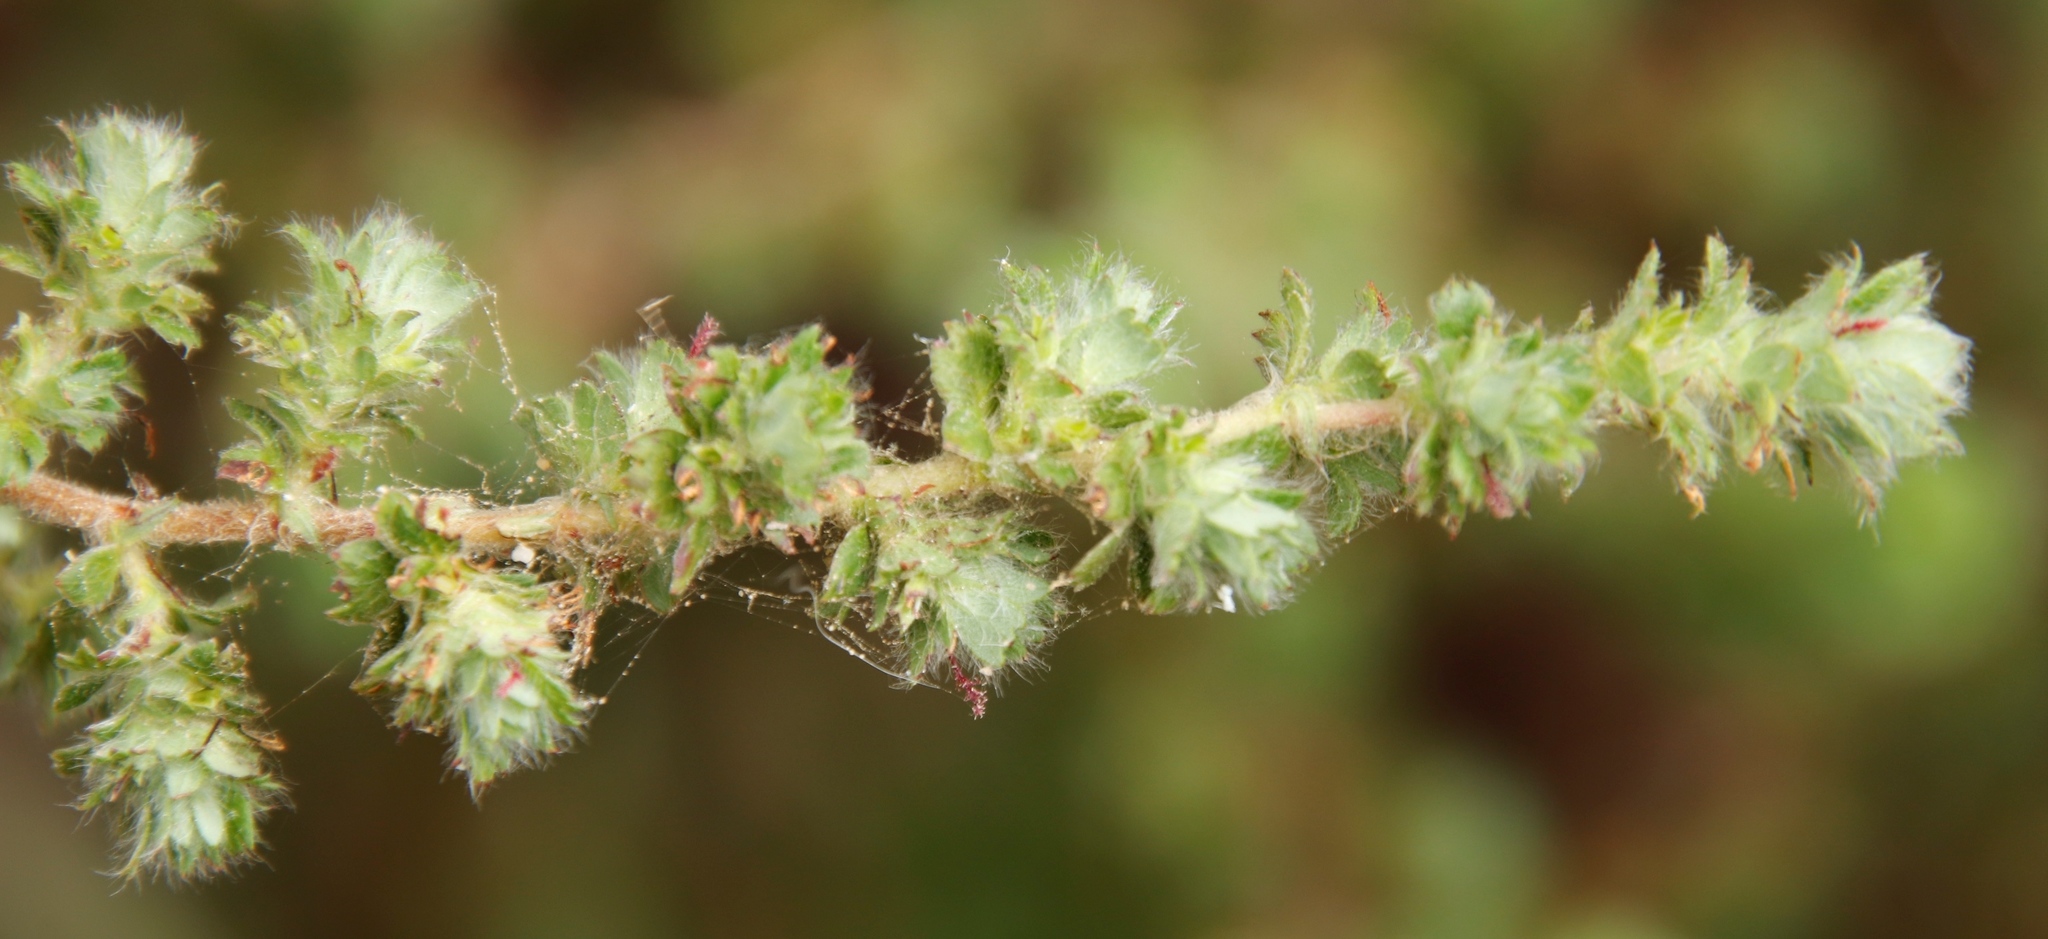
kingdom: Plantae
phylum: Tracheophyta
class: Magnoliopsida
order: Rosales
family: Rosaceae
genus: Cliffortia
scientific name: Cliffortia filicaulis
